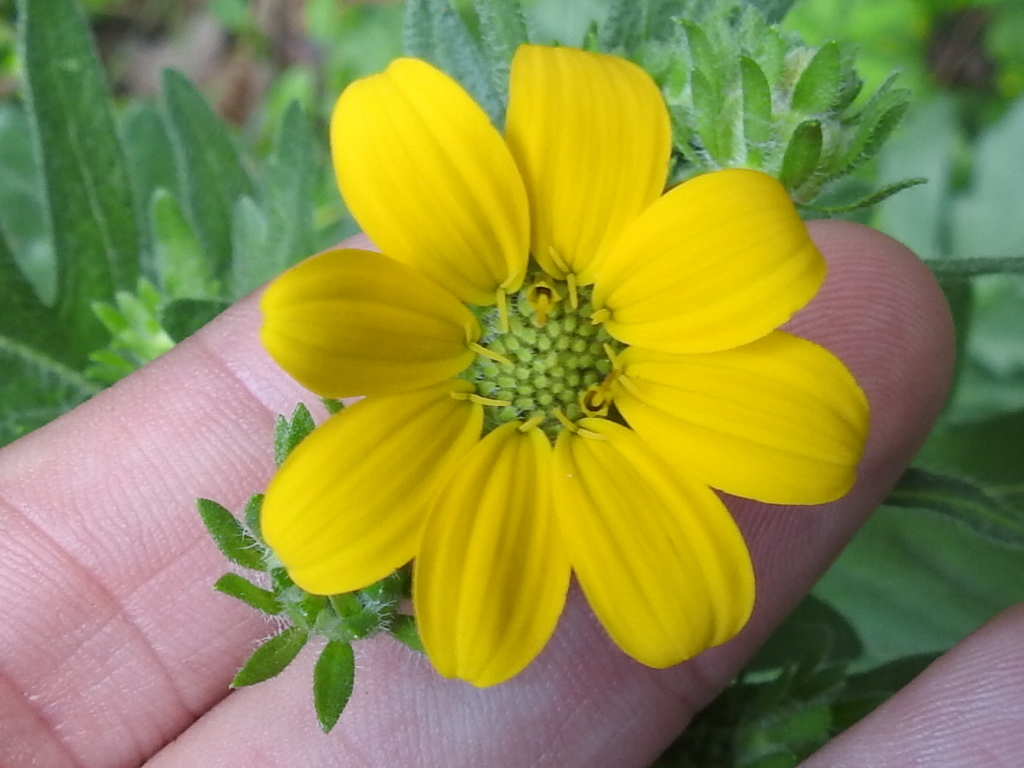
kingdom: Plantae
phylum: Tracheophyta
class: Magnoliopsida
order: Asterales
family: Asteraceae
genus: Engelmannia
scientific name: Engelmannia peristenia
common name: Engelmann's daisy
